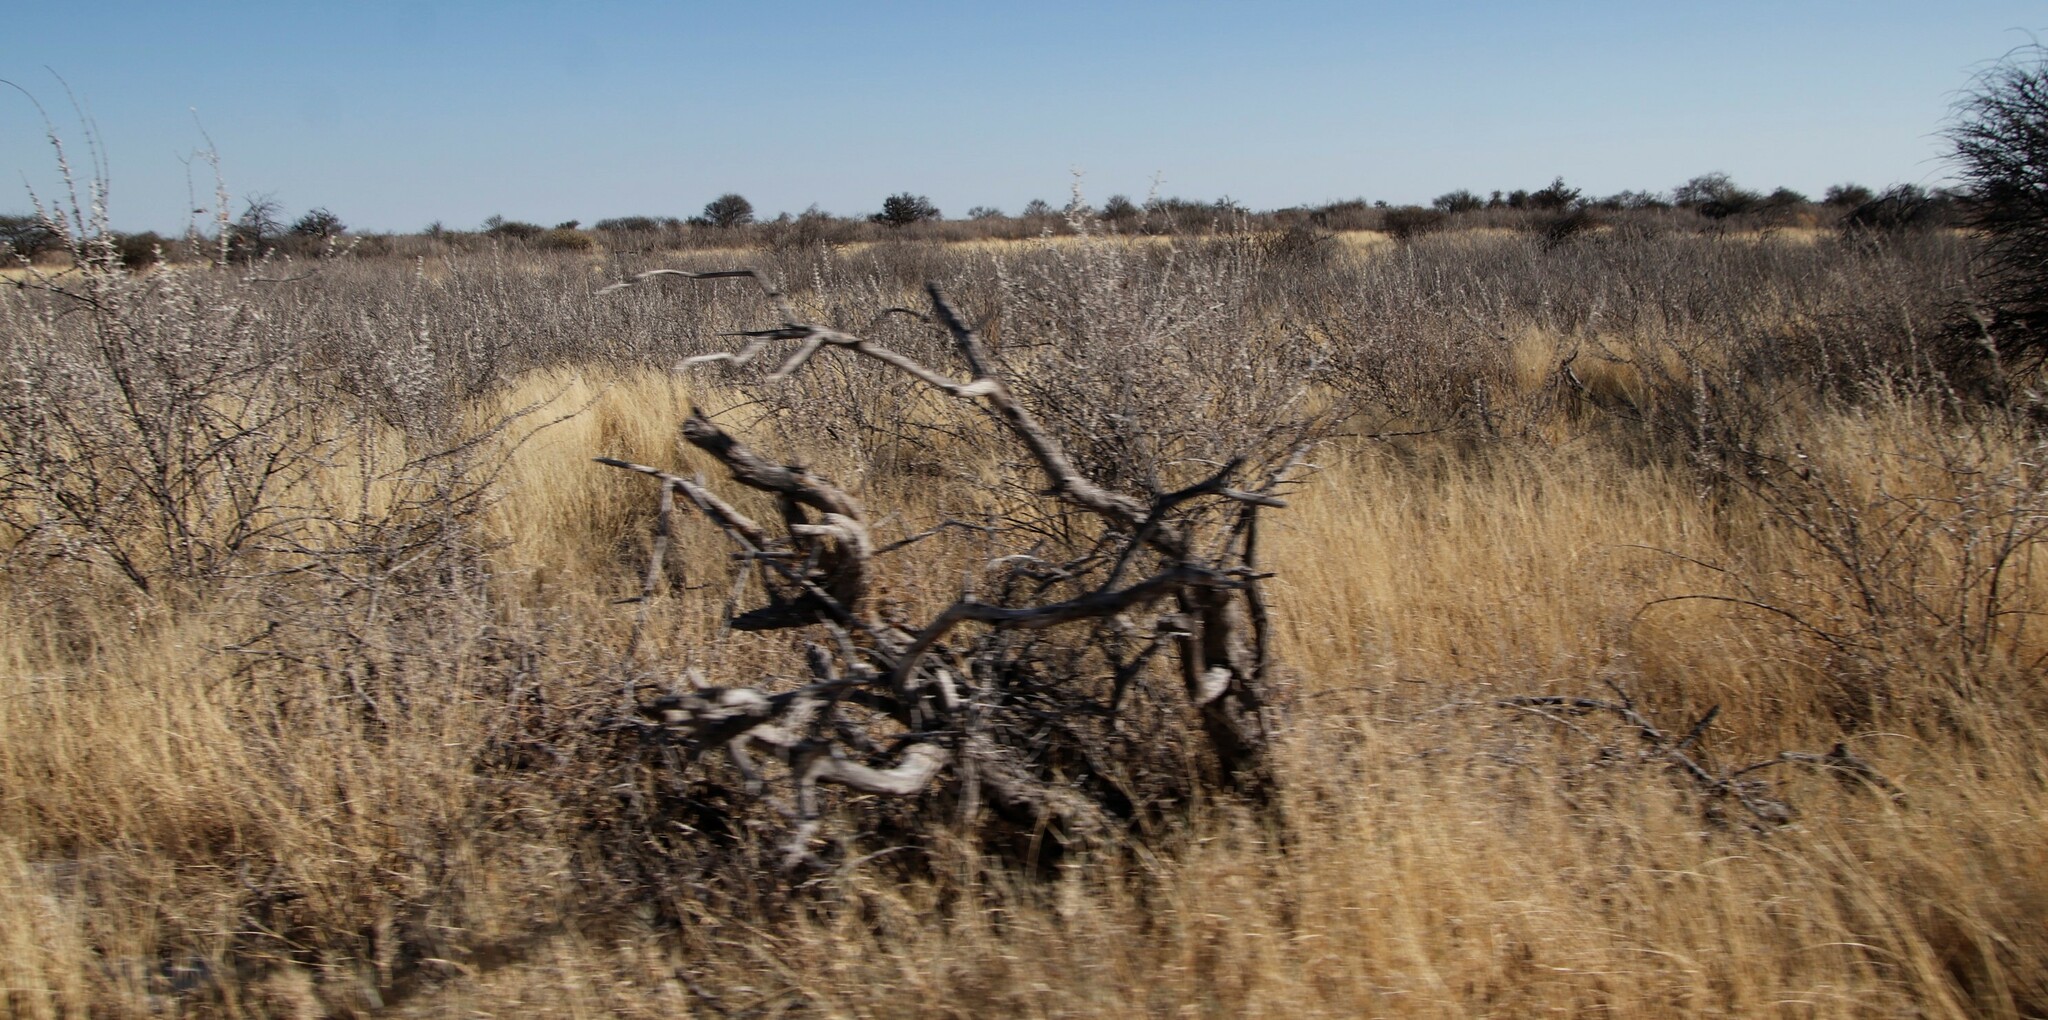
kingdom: Plantae
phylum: Tracheophyta
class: Magnoliopsida
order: Lamiales
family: Bignoniaceae
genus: Catophractes
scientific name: Catophractes alexandri
